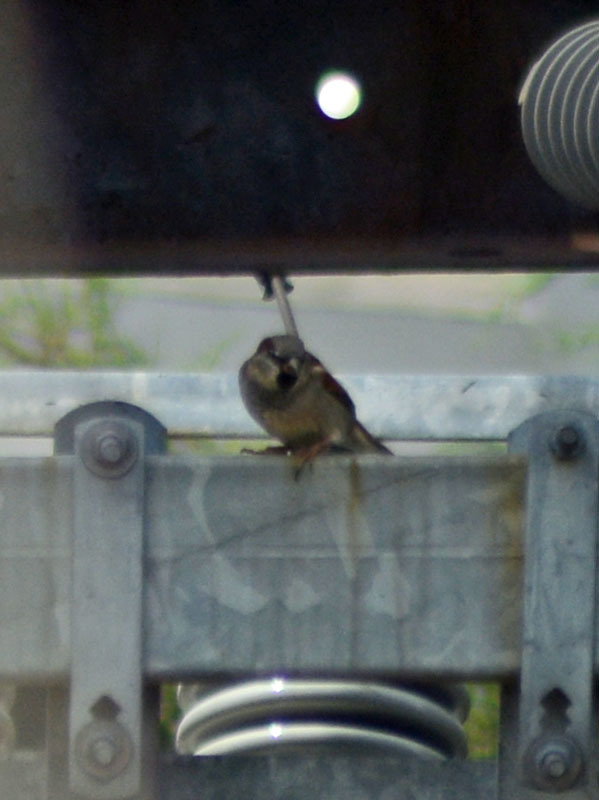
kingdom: Animalia
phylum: Chordata
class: Aves
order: Passeriformes
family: Passeridae
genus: Passer
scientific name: Passer domesticus
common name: House sparrow
